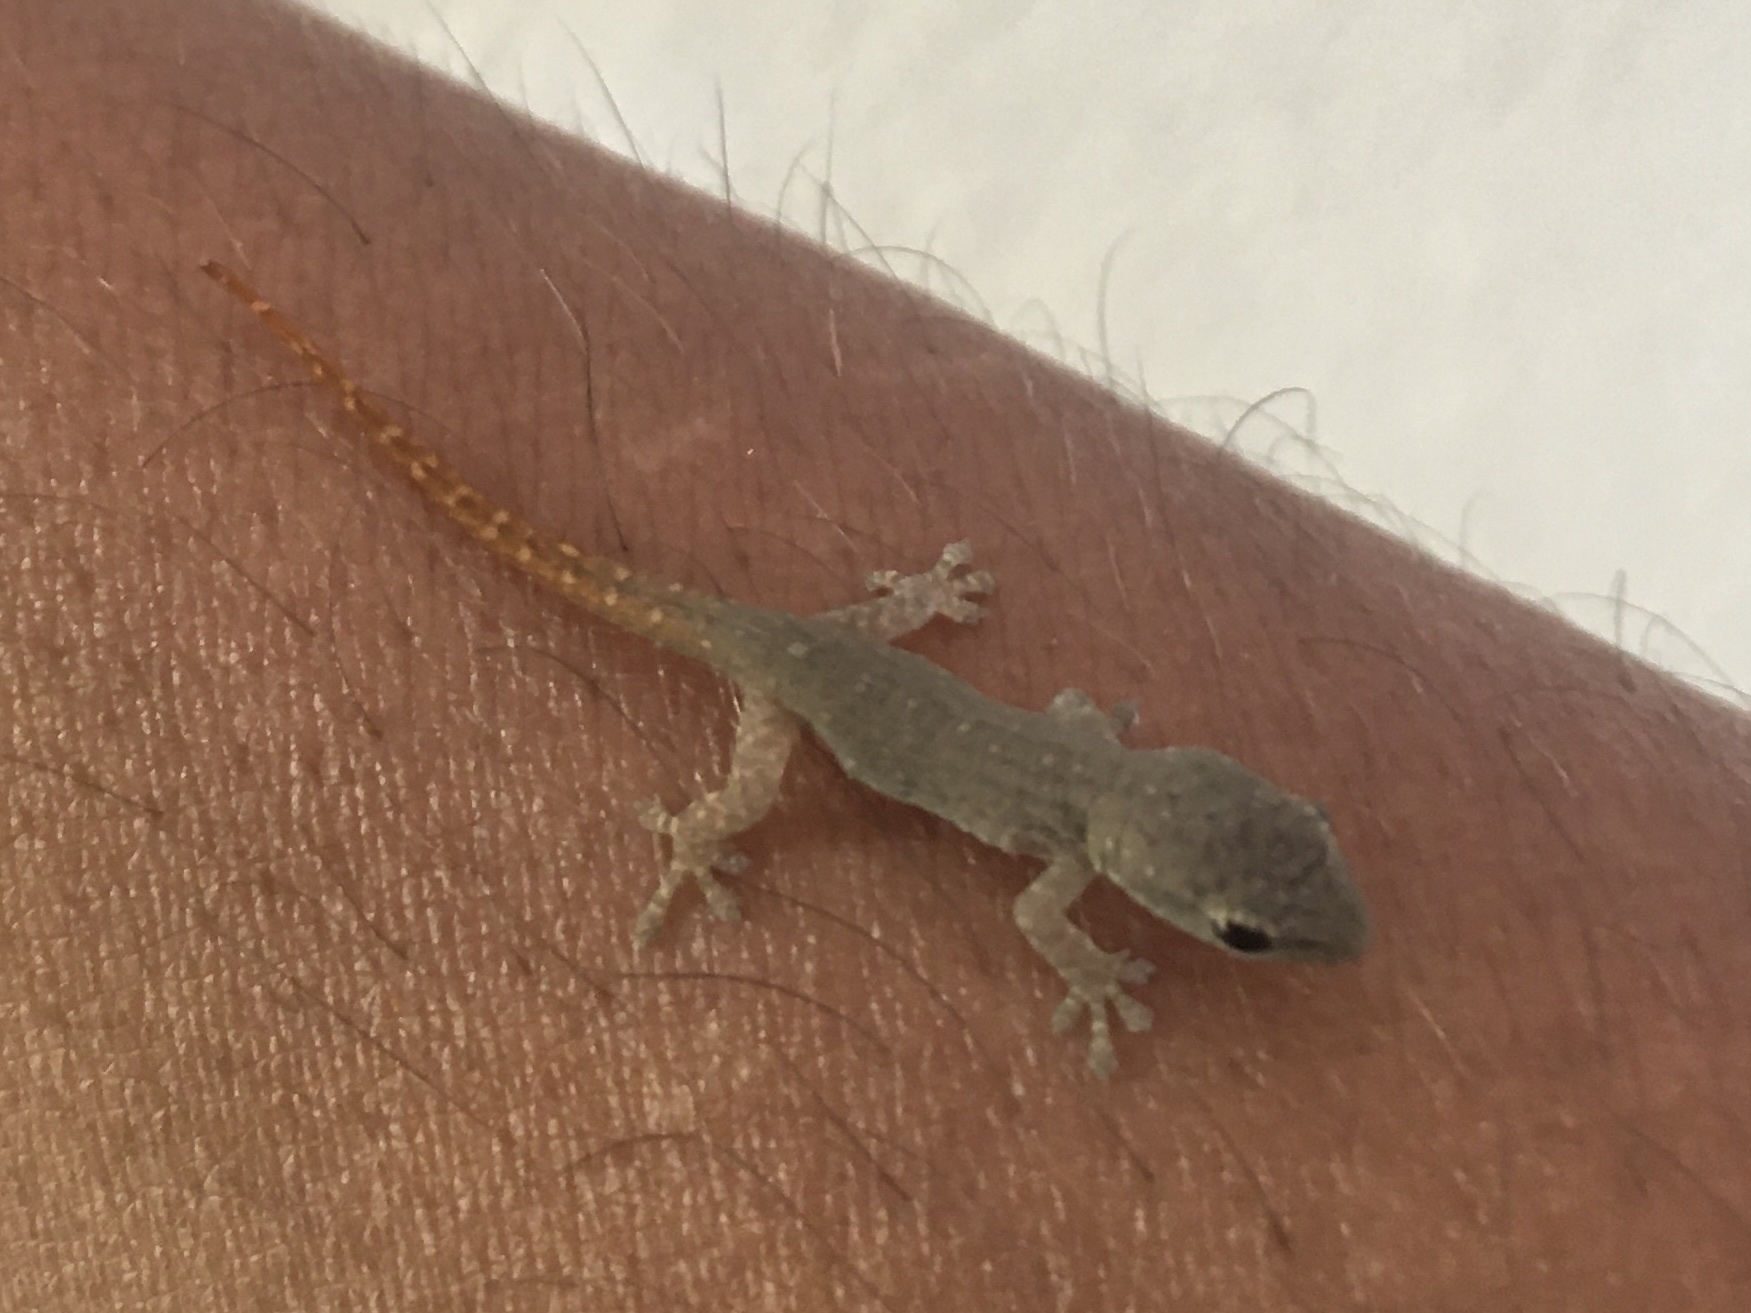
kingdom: Animalia
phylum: Chordata
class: Squamata
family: Gekkonidae
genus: Lygodactylus
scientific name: Lygodactylus capensis
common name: Cape dwarf gecko
